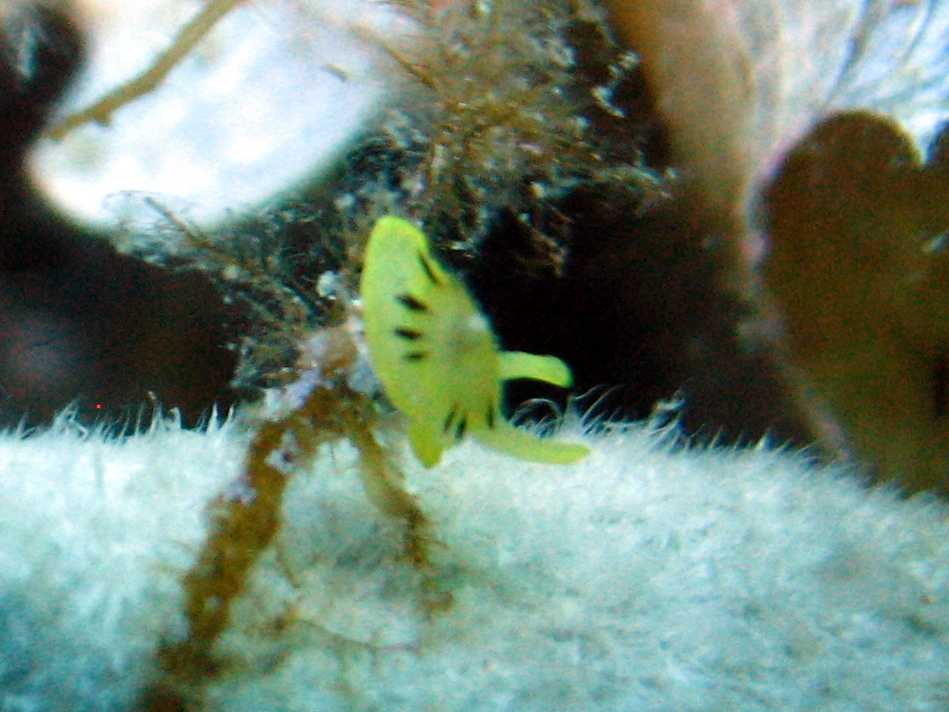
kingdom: Animalia
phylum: Mollusca
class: Gastropoda
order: Umbraculida
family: Tylodinidae
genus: Tylodina
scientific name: Tylodina perversa
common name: Yellow tylodina
